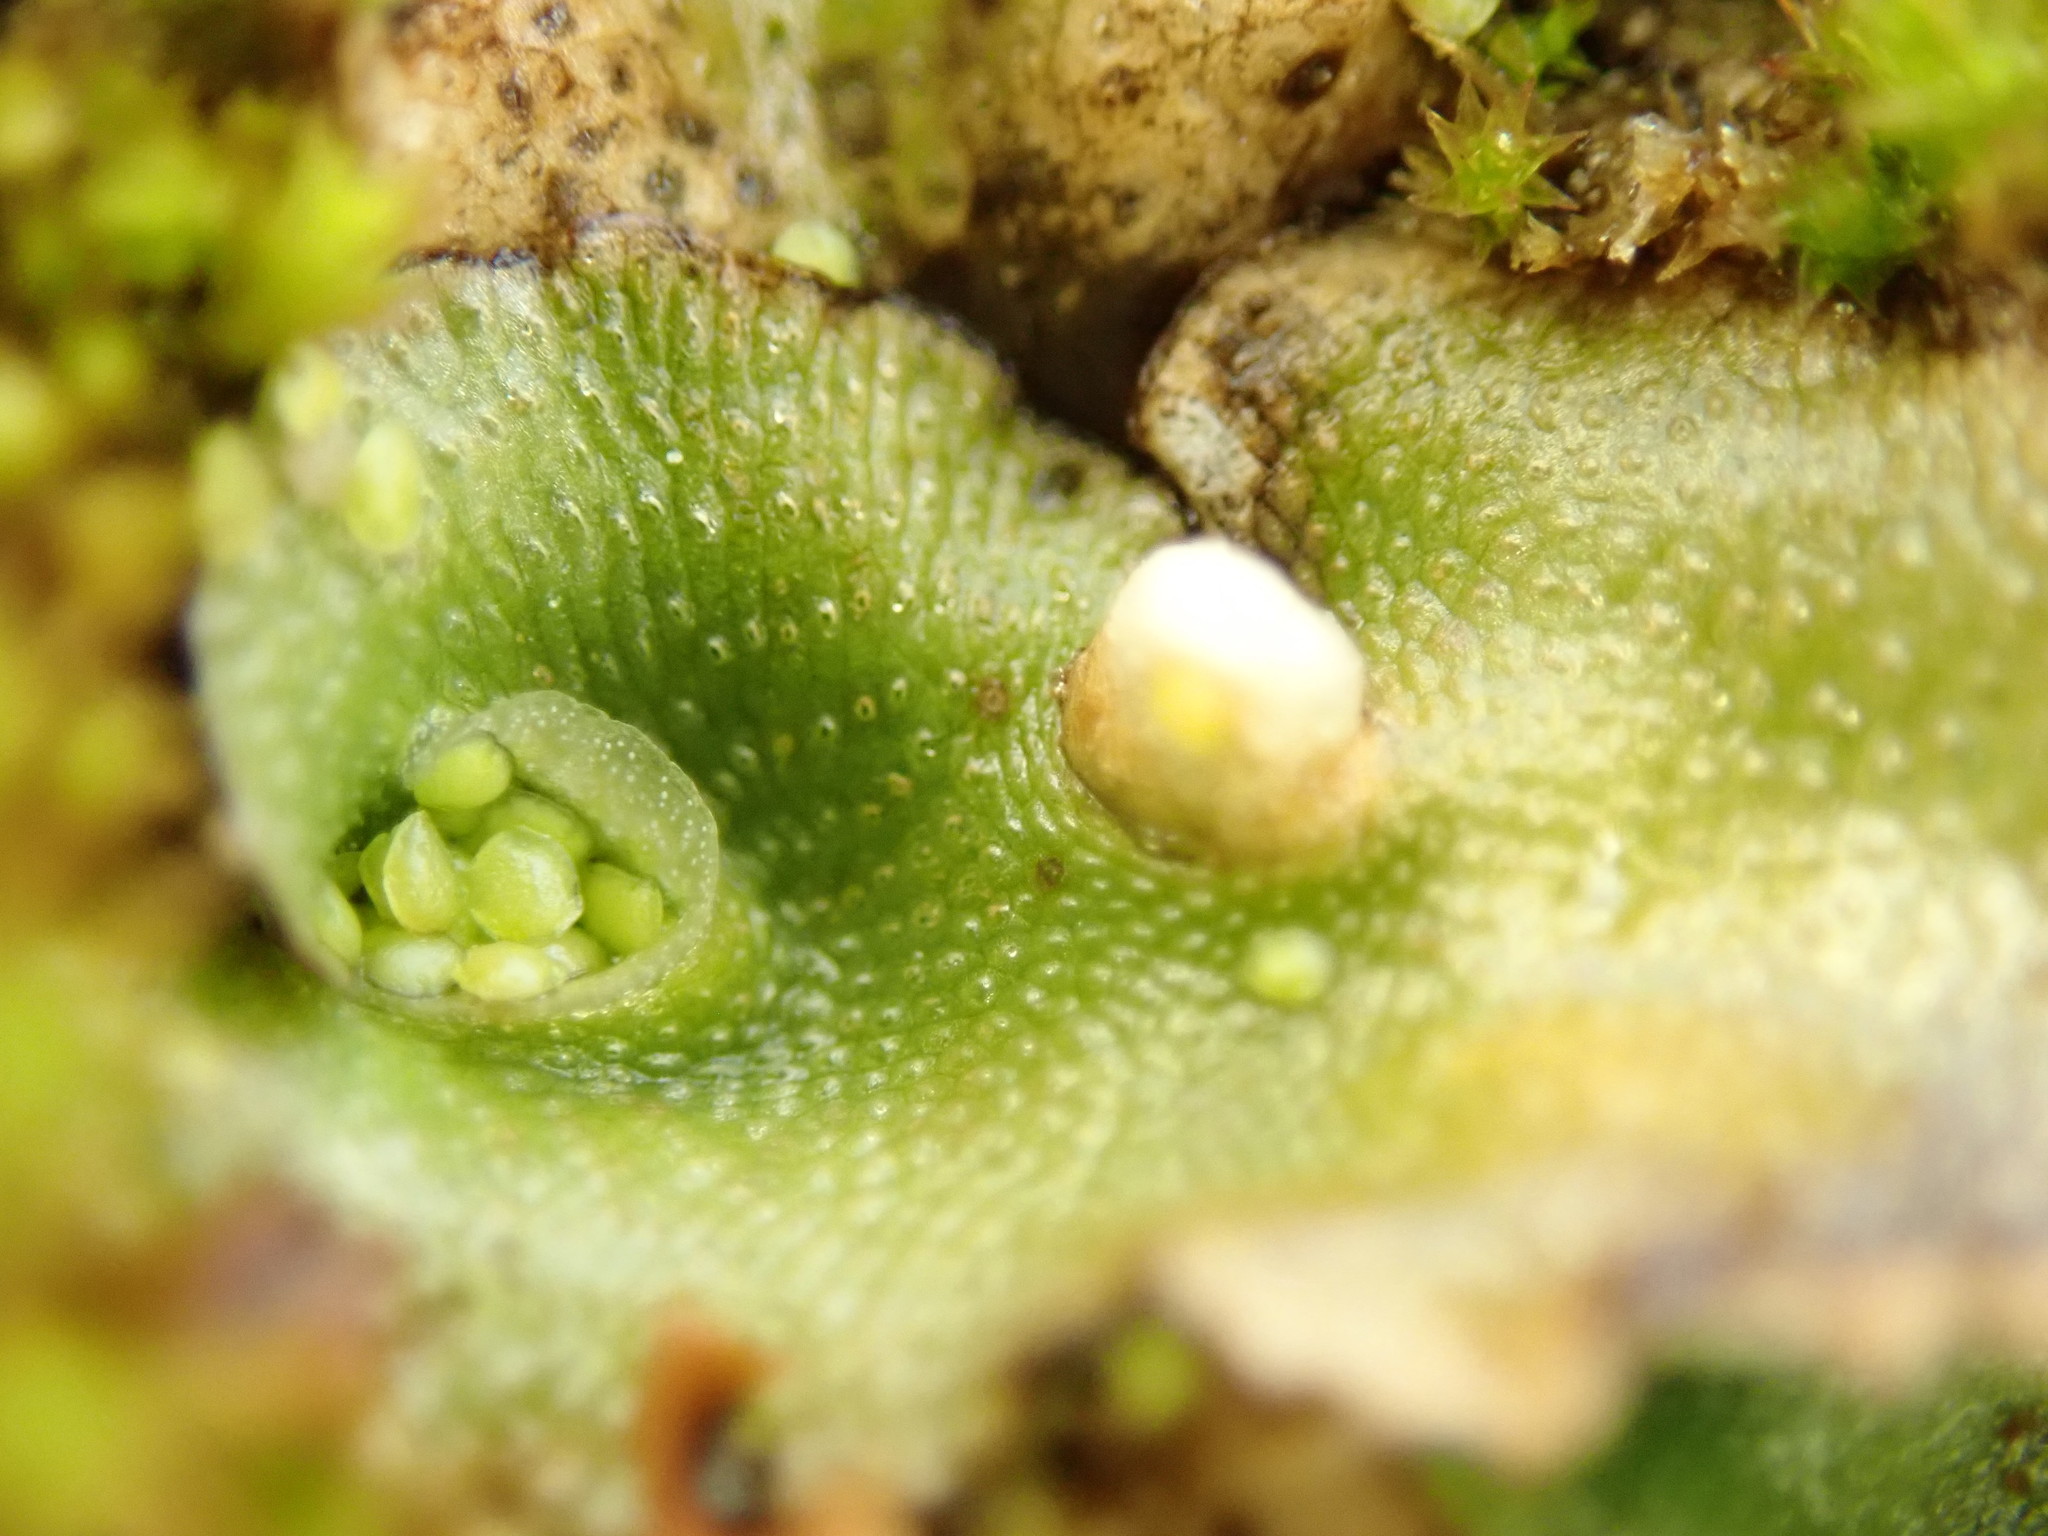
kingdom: Plantae
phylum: Marchantiophyta
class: Marchantiopsida
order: Lunulariales
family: Lunulariaceae
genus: Lunularia
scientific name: Lunularia cruciata
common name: Crescent-cup liverwort
